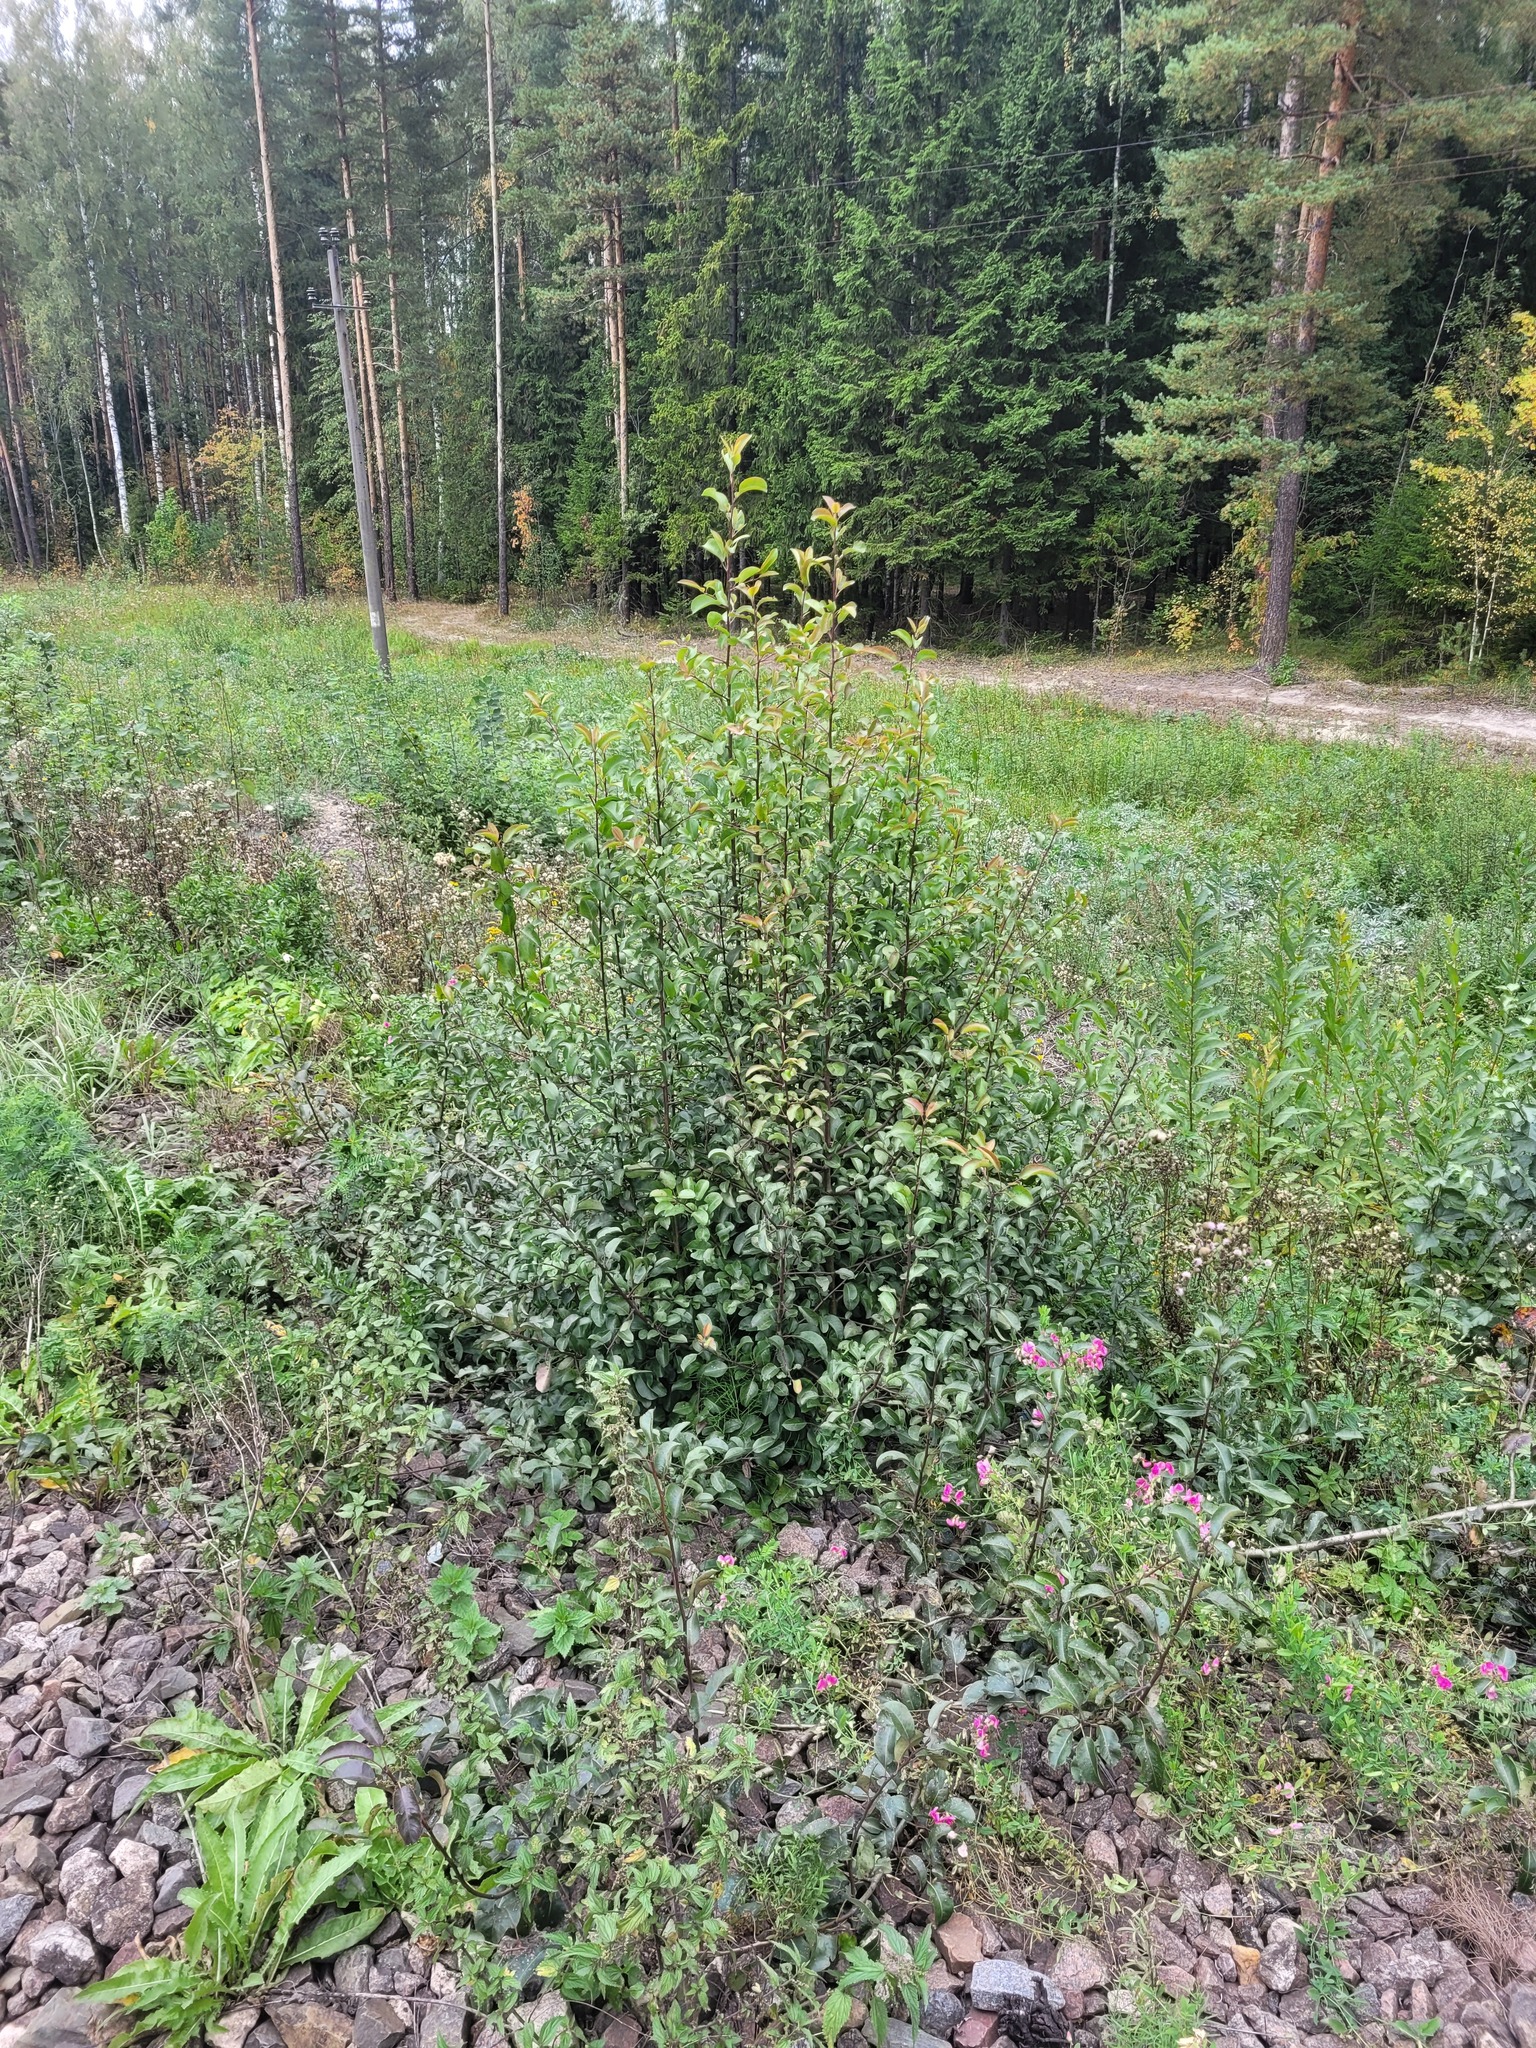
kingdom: Plantae
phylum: Tracheophyta
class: Magnoliopsida
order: Rosales
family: Rosaceae
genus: Pyrus
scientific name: Pyrus communis
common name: Pear
